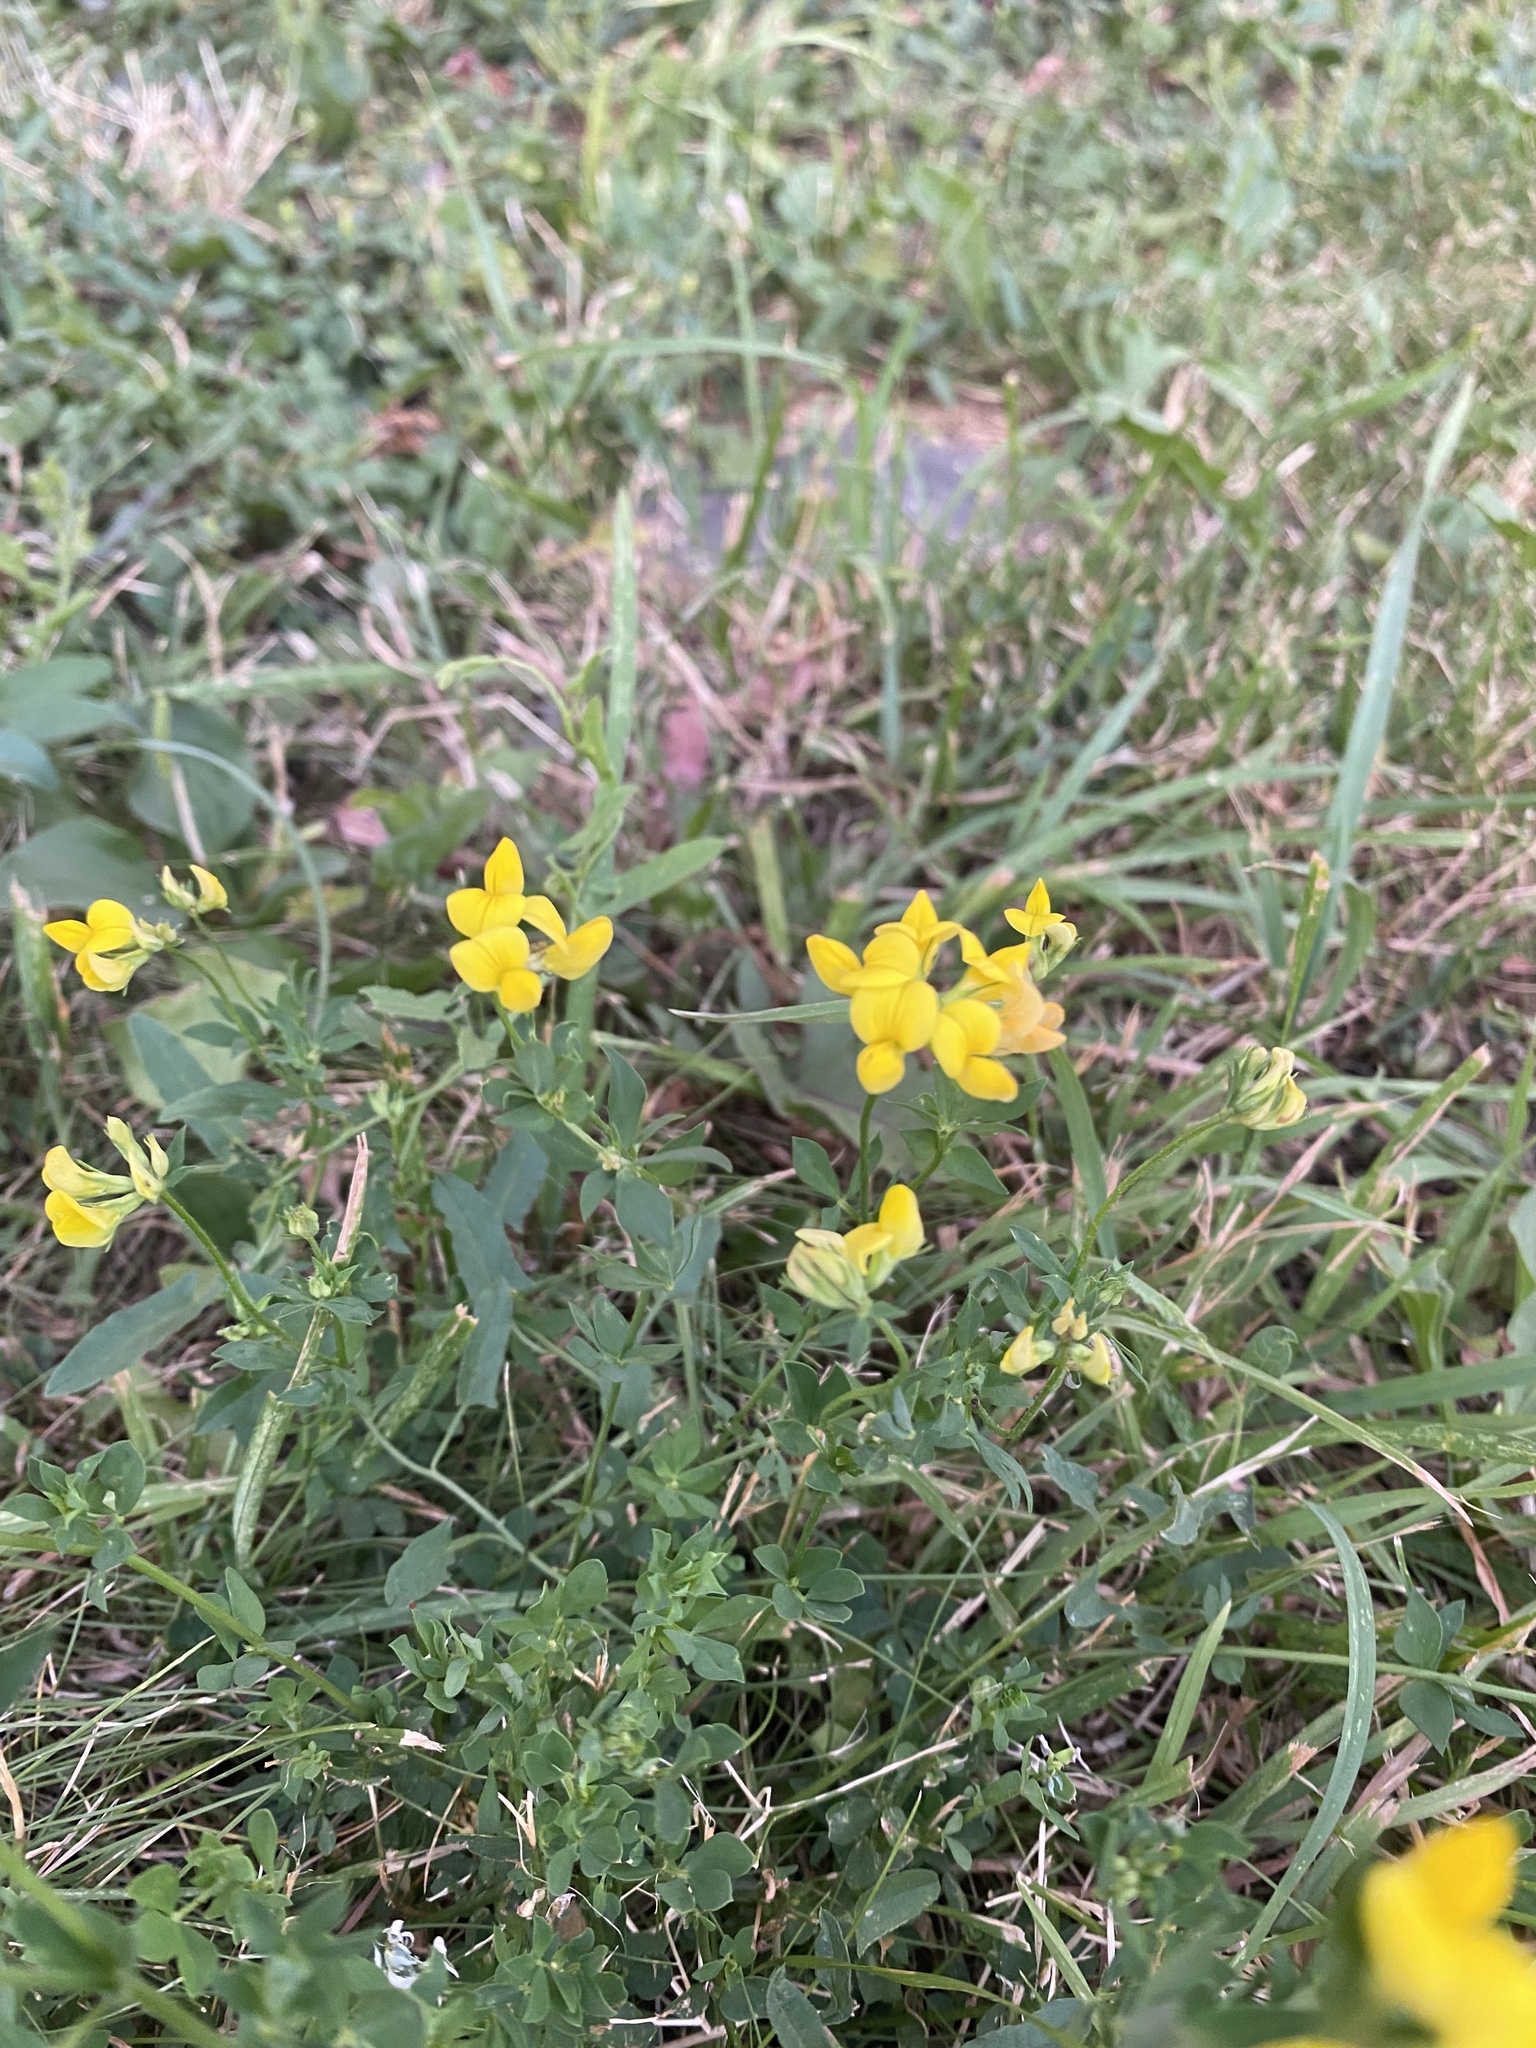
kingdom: Plantae
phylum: Tracheophyta
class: Magnoliopsida
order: Fabales
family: Fabaceae
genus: Lotus
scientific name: Lotus corniculatus
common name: Common bird's-foot-trefoil
